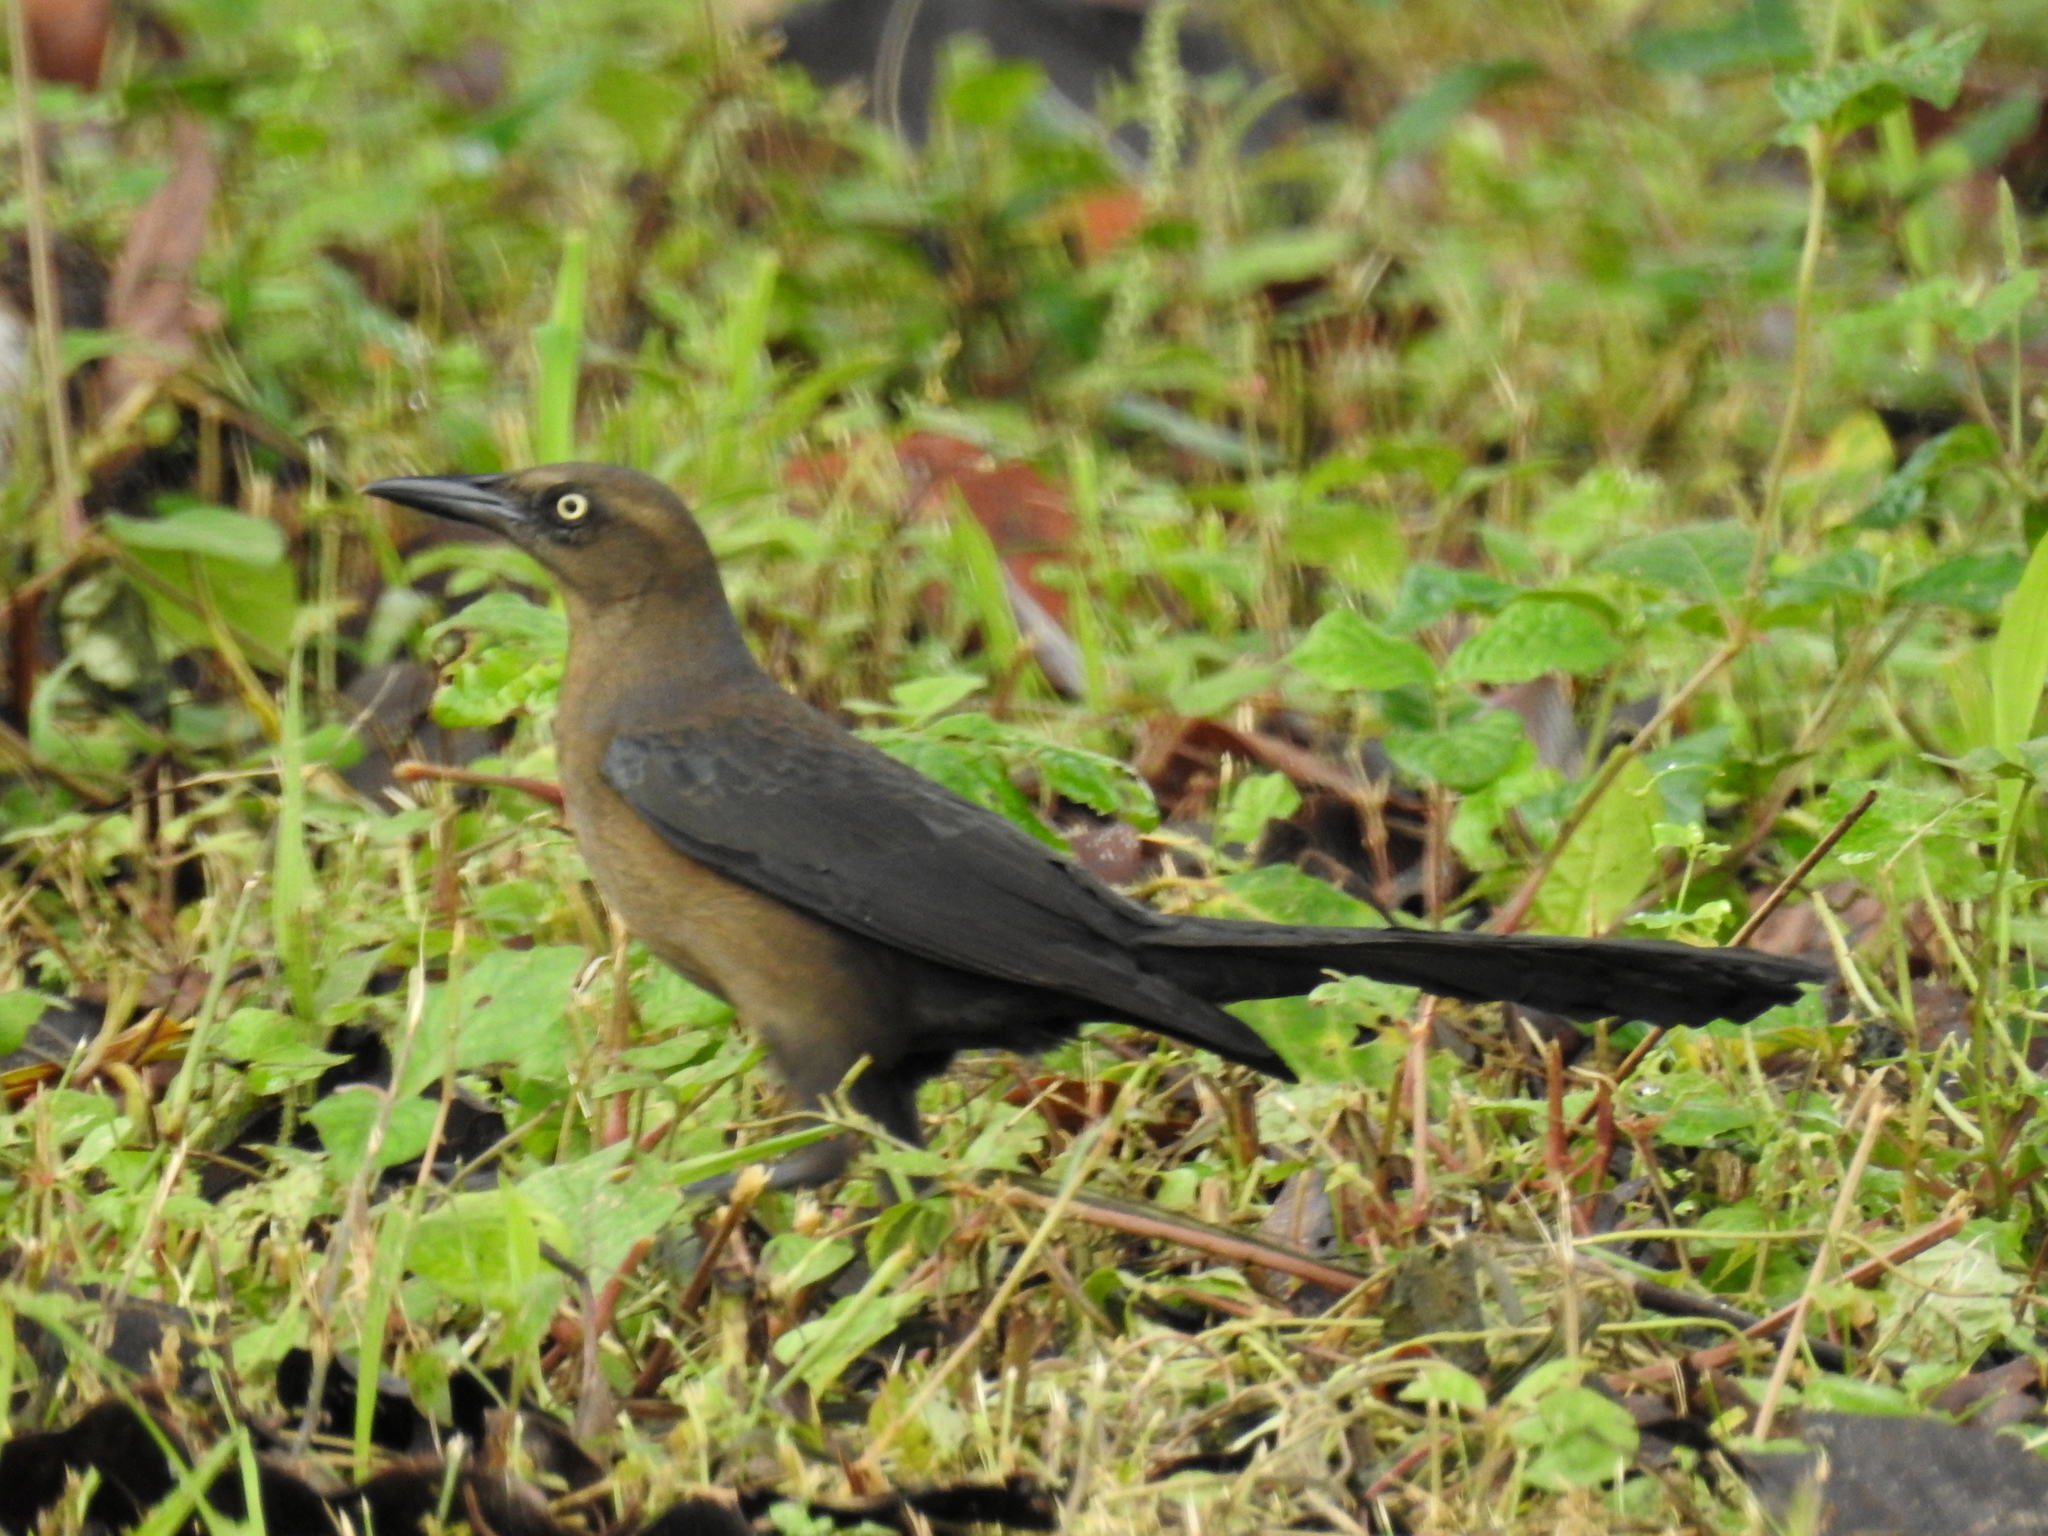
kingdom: Animalia
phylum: Chordata
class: Aves
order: Passeriformes
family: Icteridae
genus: Quiscalus
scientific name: Quiscalus mexicanus
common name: Great-tailed grackle
